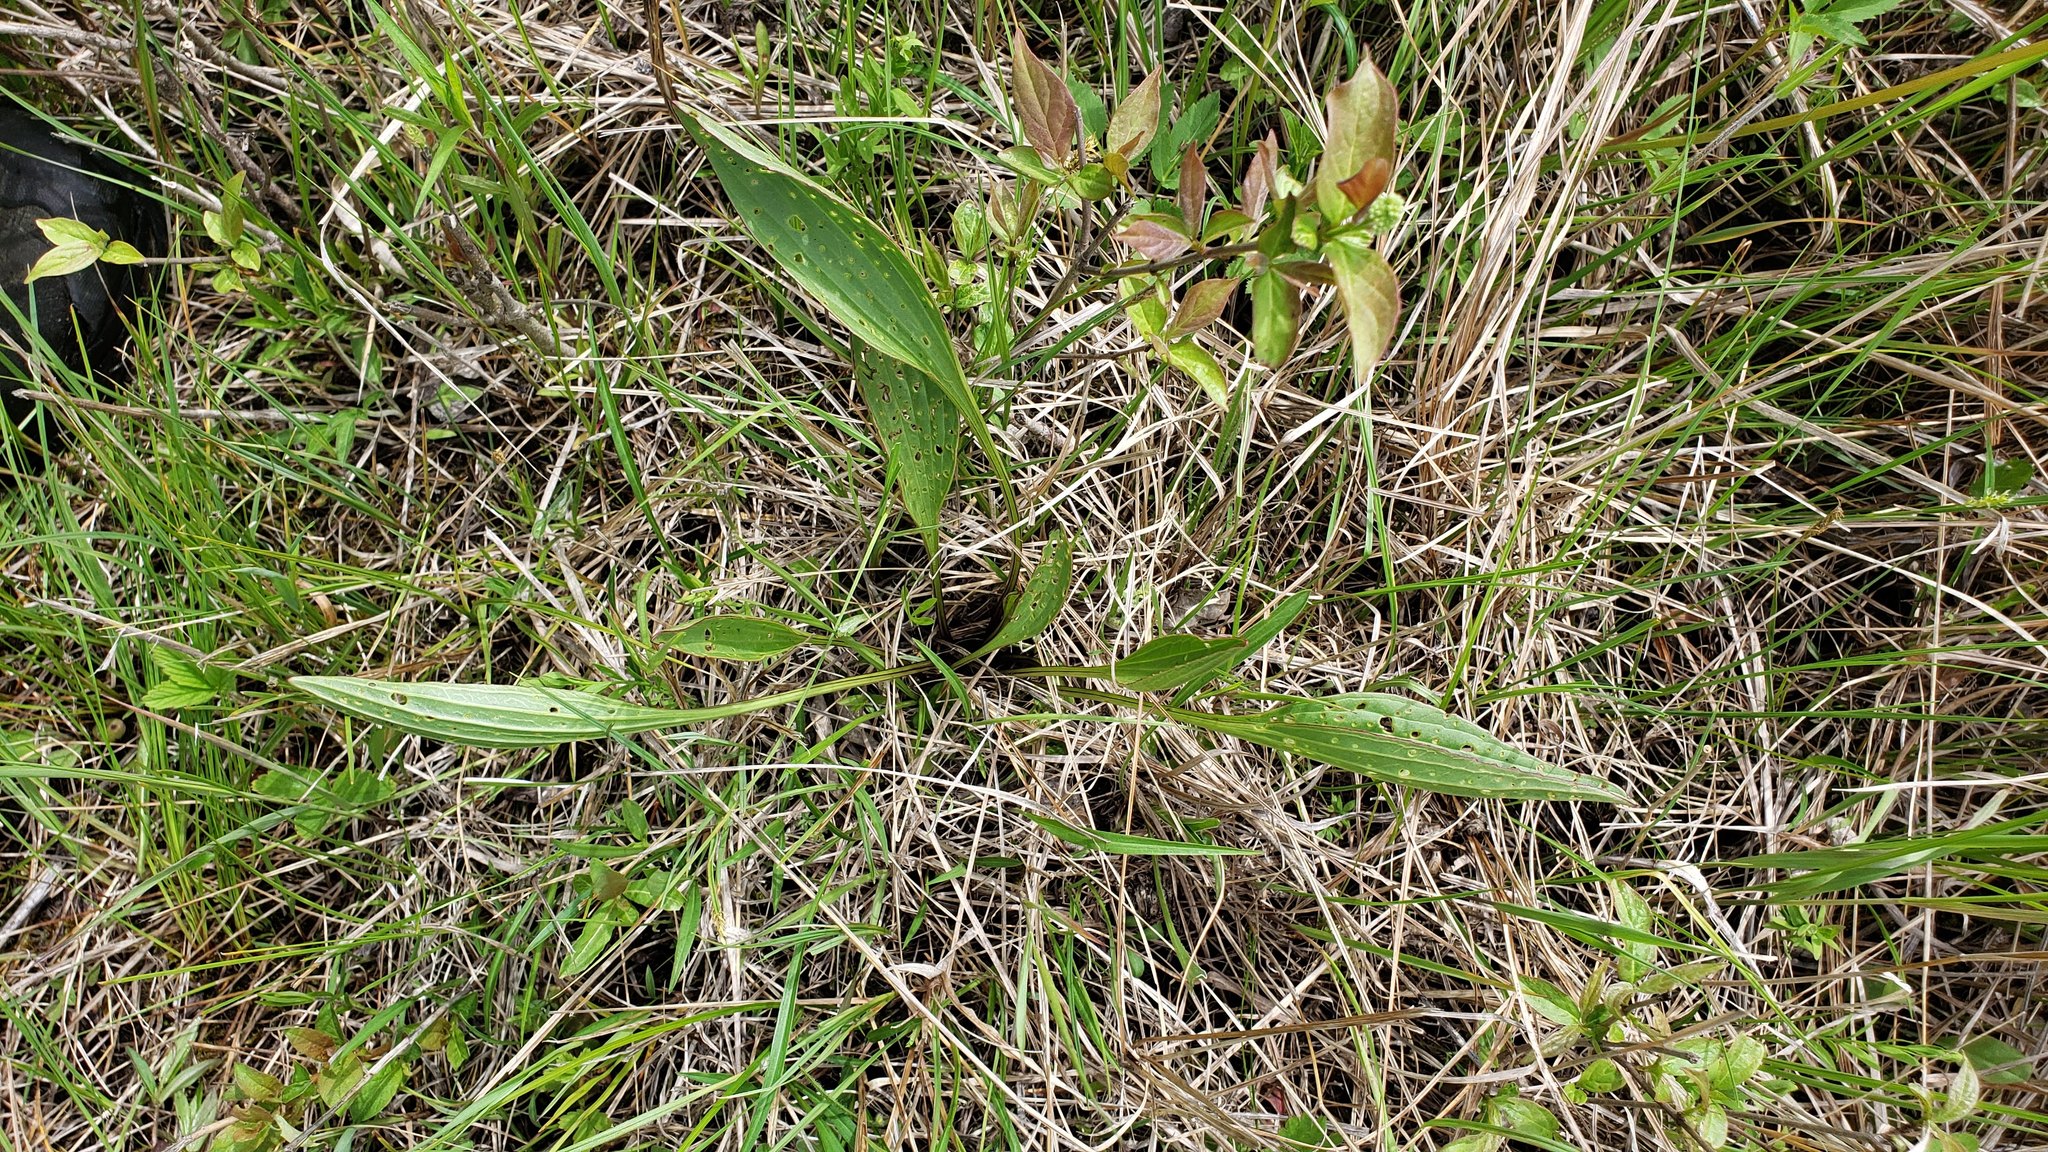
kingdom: Plantae
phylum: Tracheophyta
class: Magnoliopsida
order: Asterales
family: Asteraceae
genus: Arnoglossum
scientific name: Arnoglossum plantagineum
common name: Groove-stemmed indian-plantain
